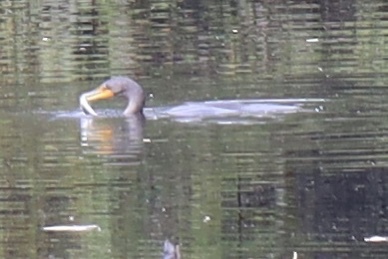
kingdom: Animalia
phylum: Chordata
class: Aves
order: Suliformes
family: Phalacrocoracidae
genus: Phalacrocorax
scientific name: Phalacrocorax auritus
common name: Double-crested cormorant
